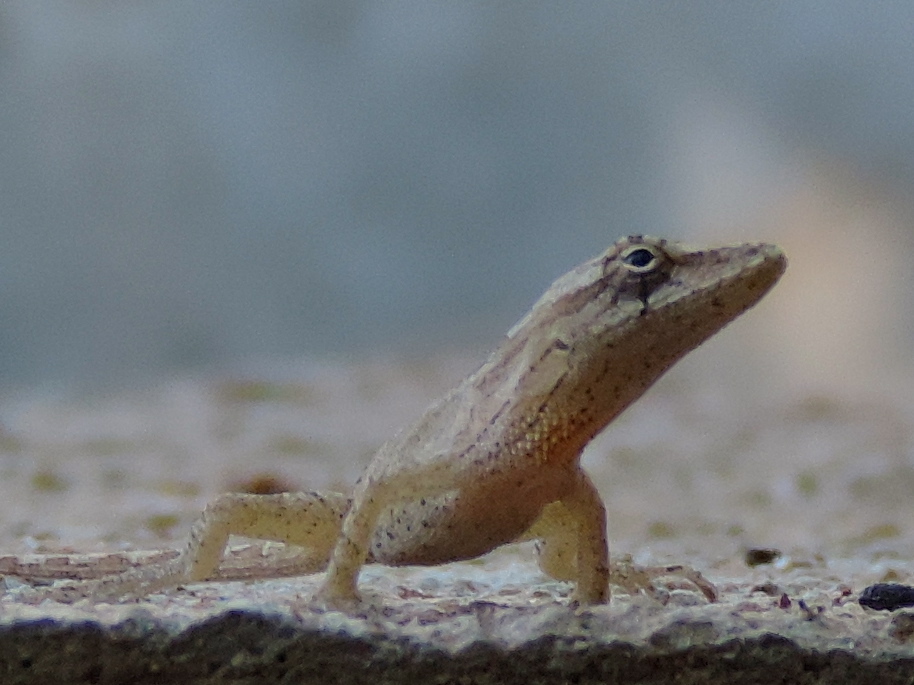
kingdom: Animalia
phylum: Chordata
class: Squamata
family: Dactyloidae
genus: Anolis
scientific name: Anolis nebulosus
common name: Clouded anole
